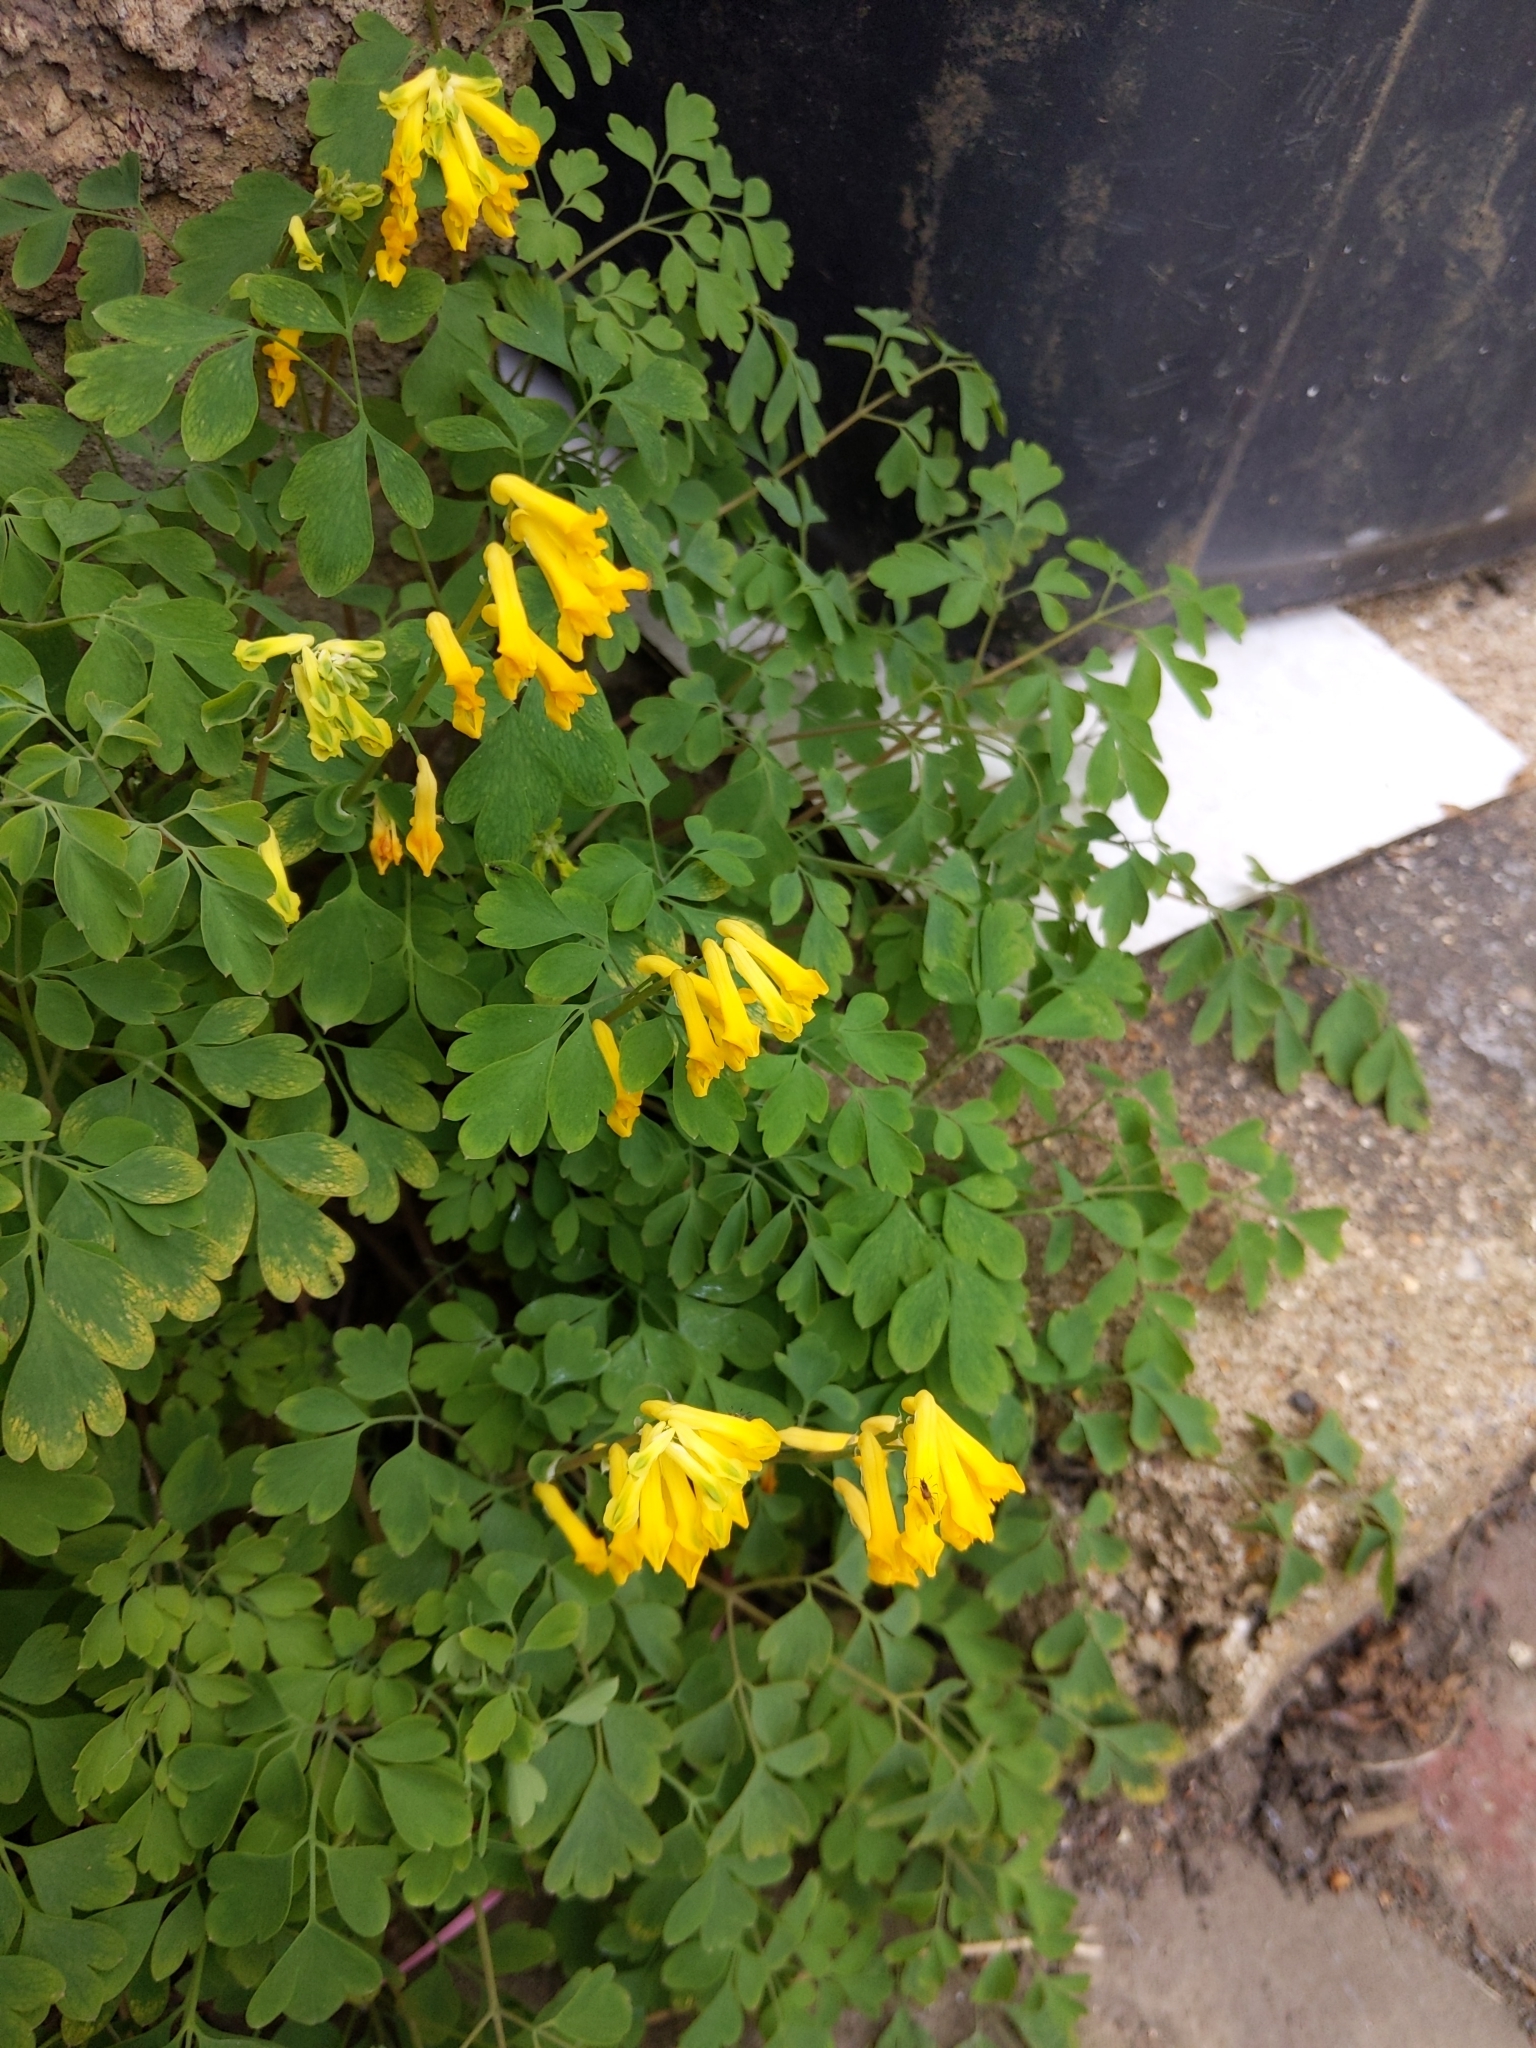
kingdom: Plantae
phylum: Tracheophyta
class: Magnoliopsida
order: Ranunculales
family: Papaveraceae
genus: Pseudofumaria
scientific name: Pseudofumaria lutea
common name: Yellow corydalis
